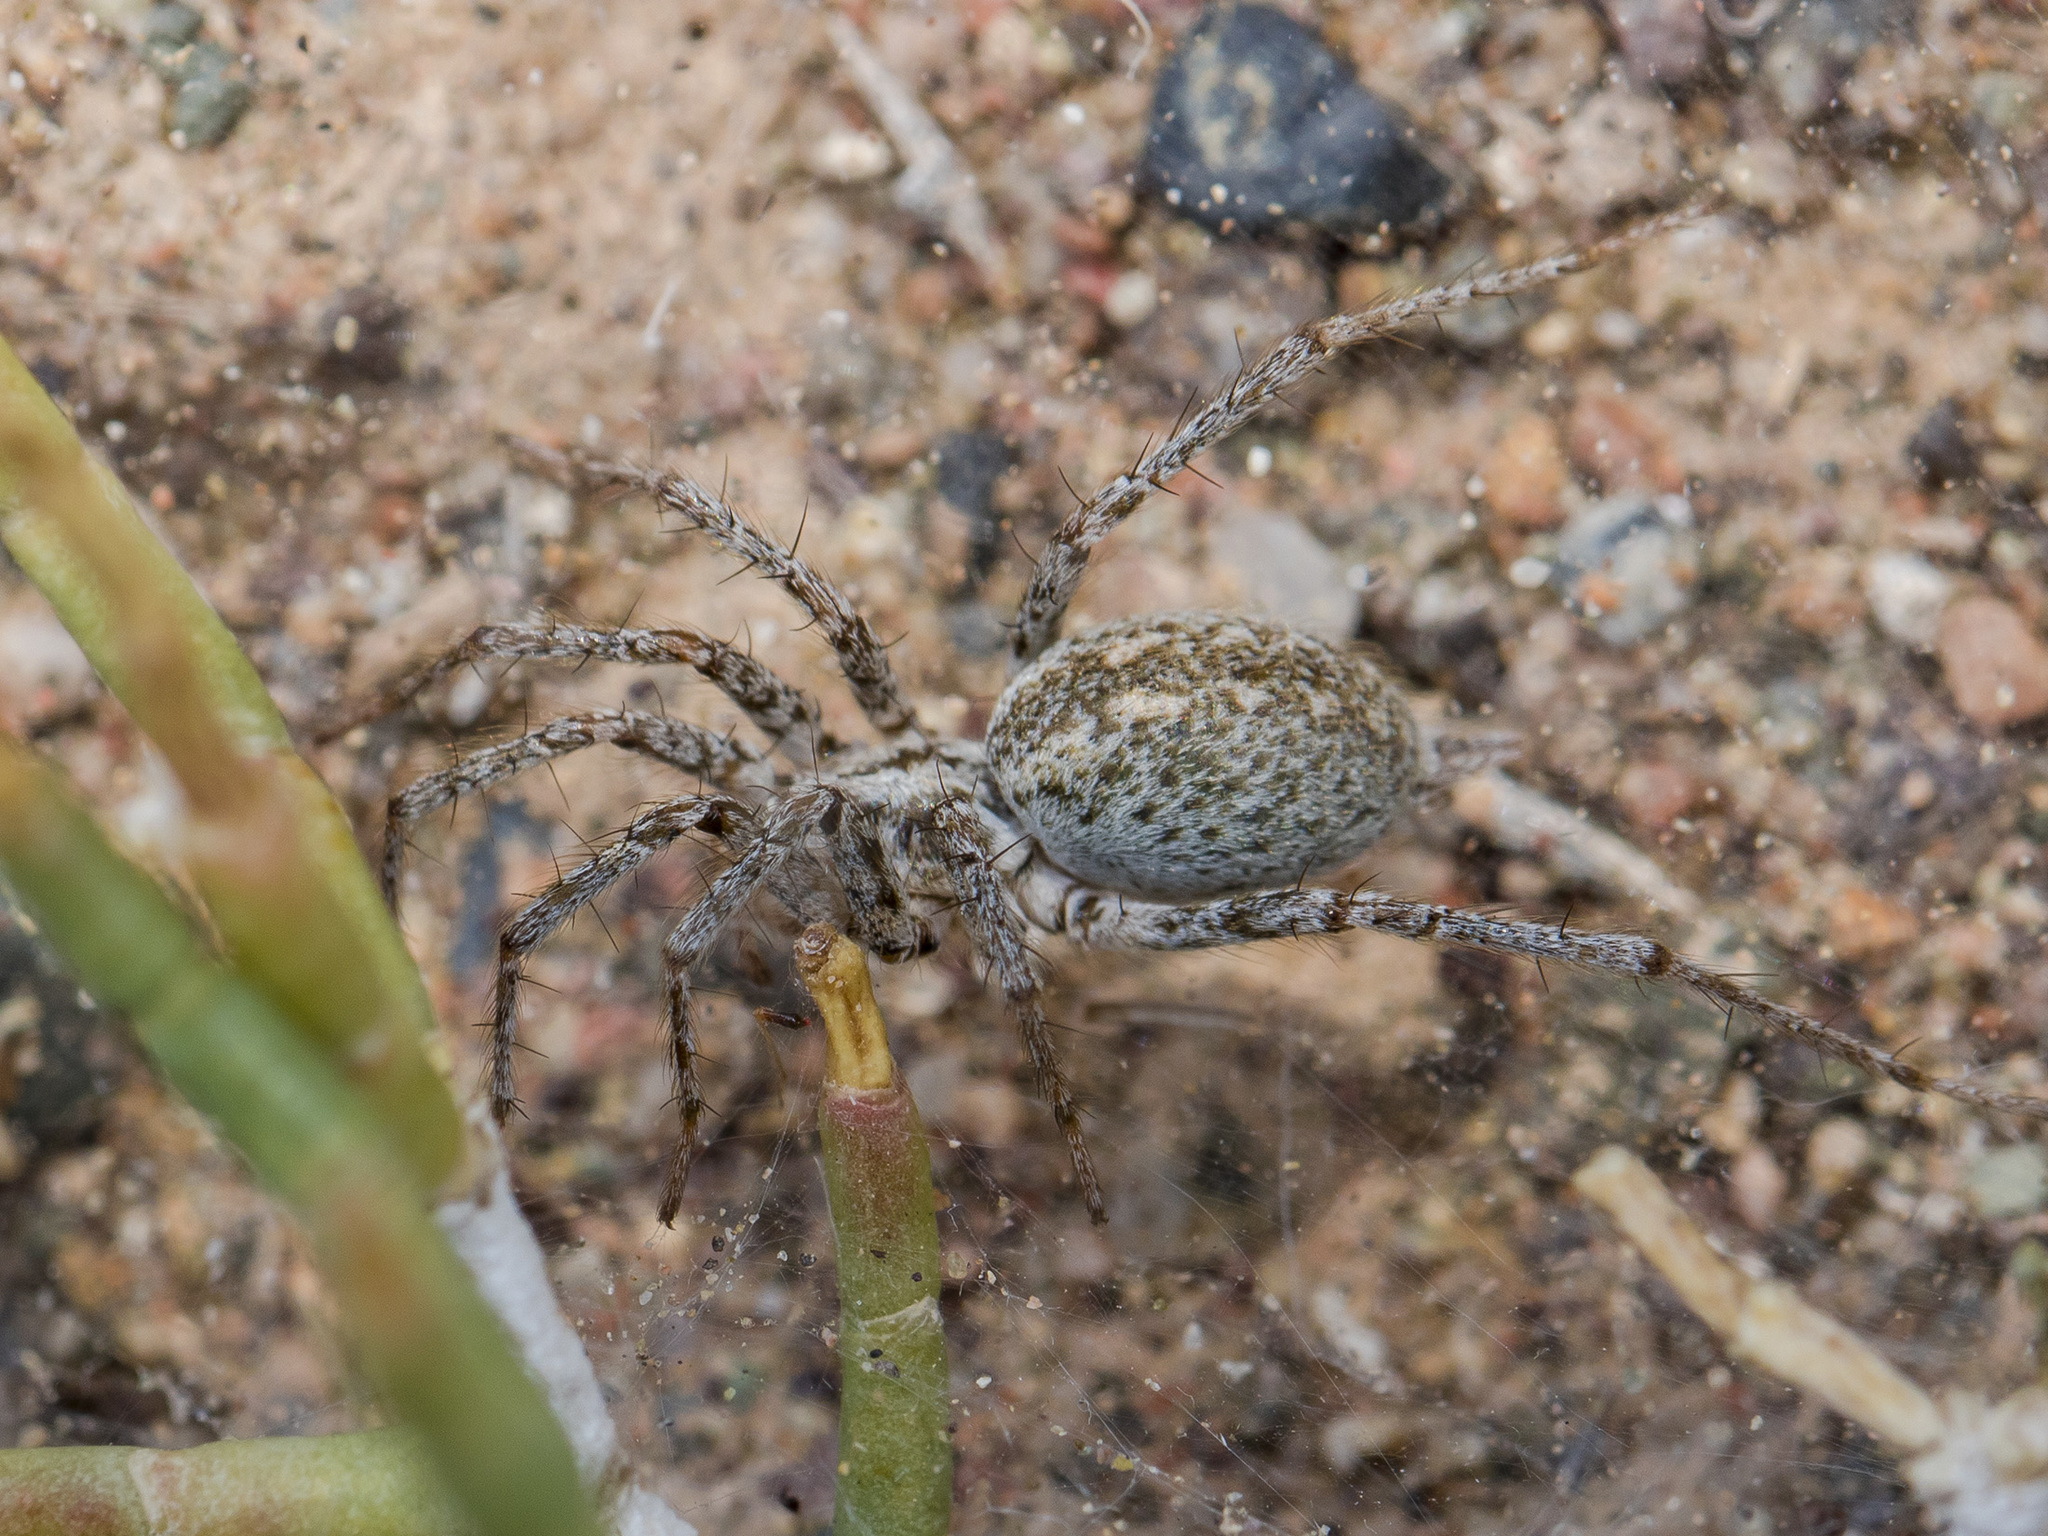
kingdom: Animalia
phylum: Arthropoda
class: Arachnida
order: Araneae
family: Agelenidae
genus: Benoitia
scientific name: Benoitia tadzhika
